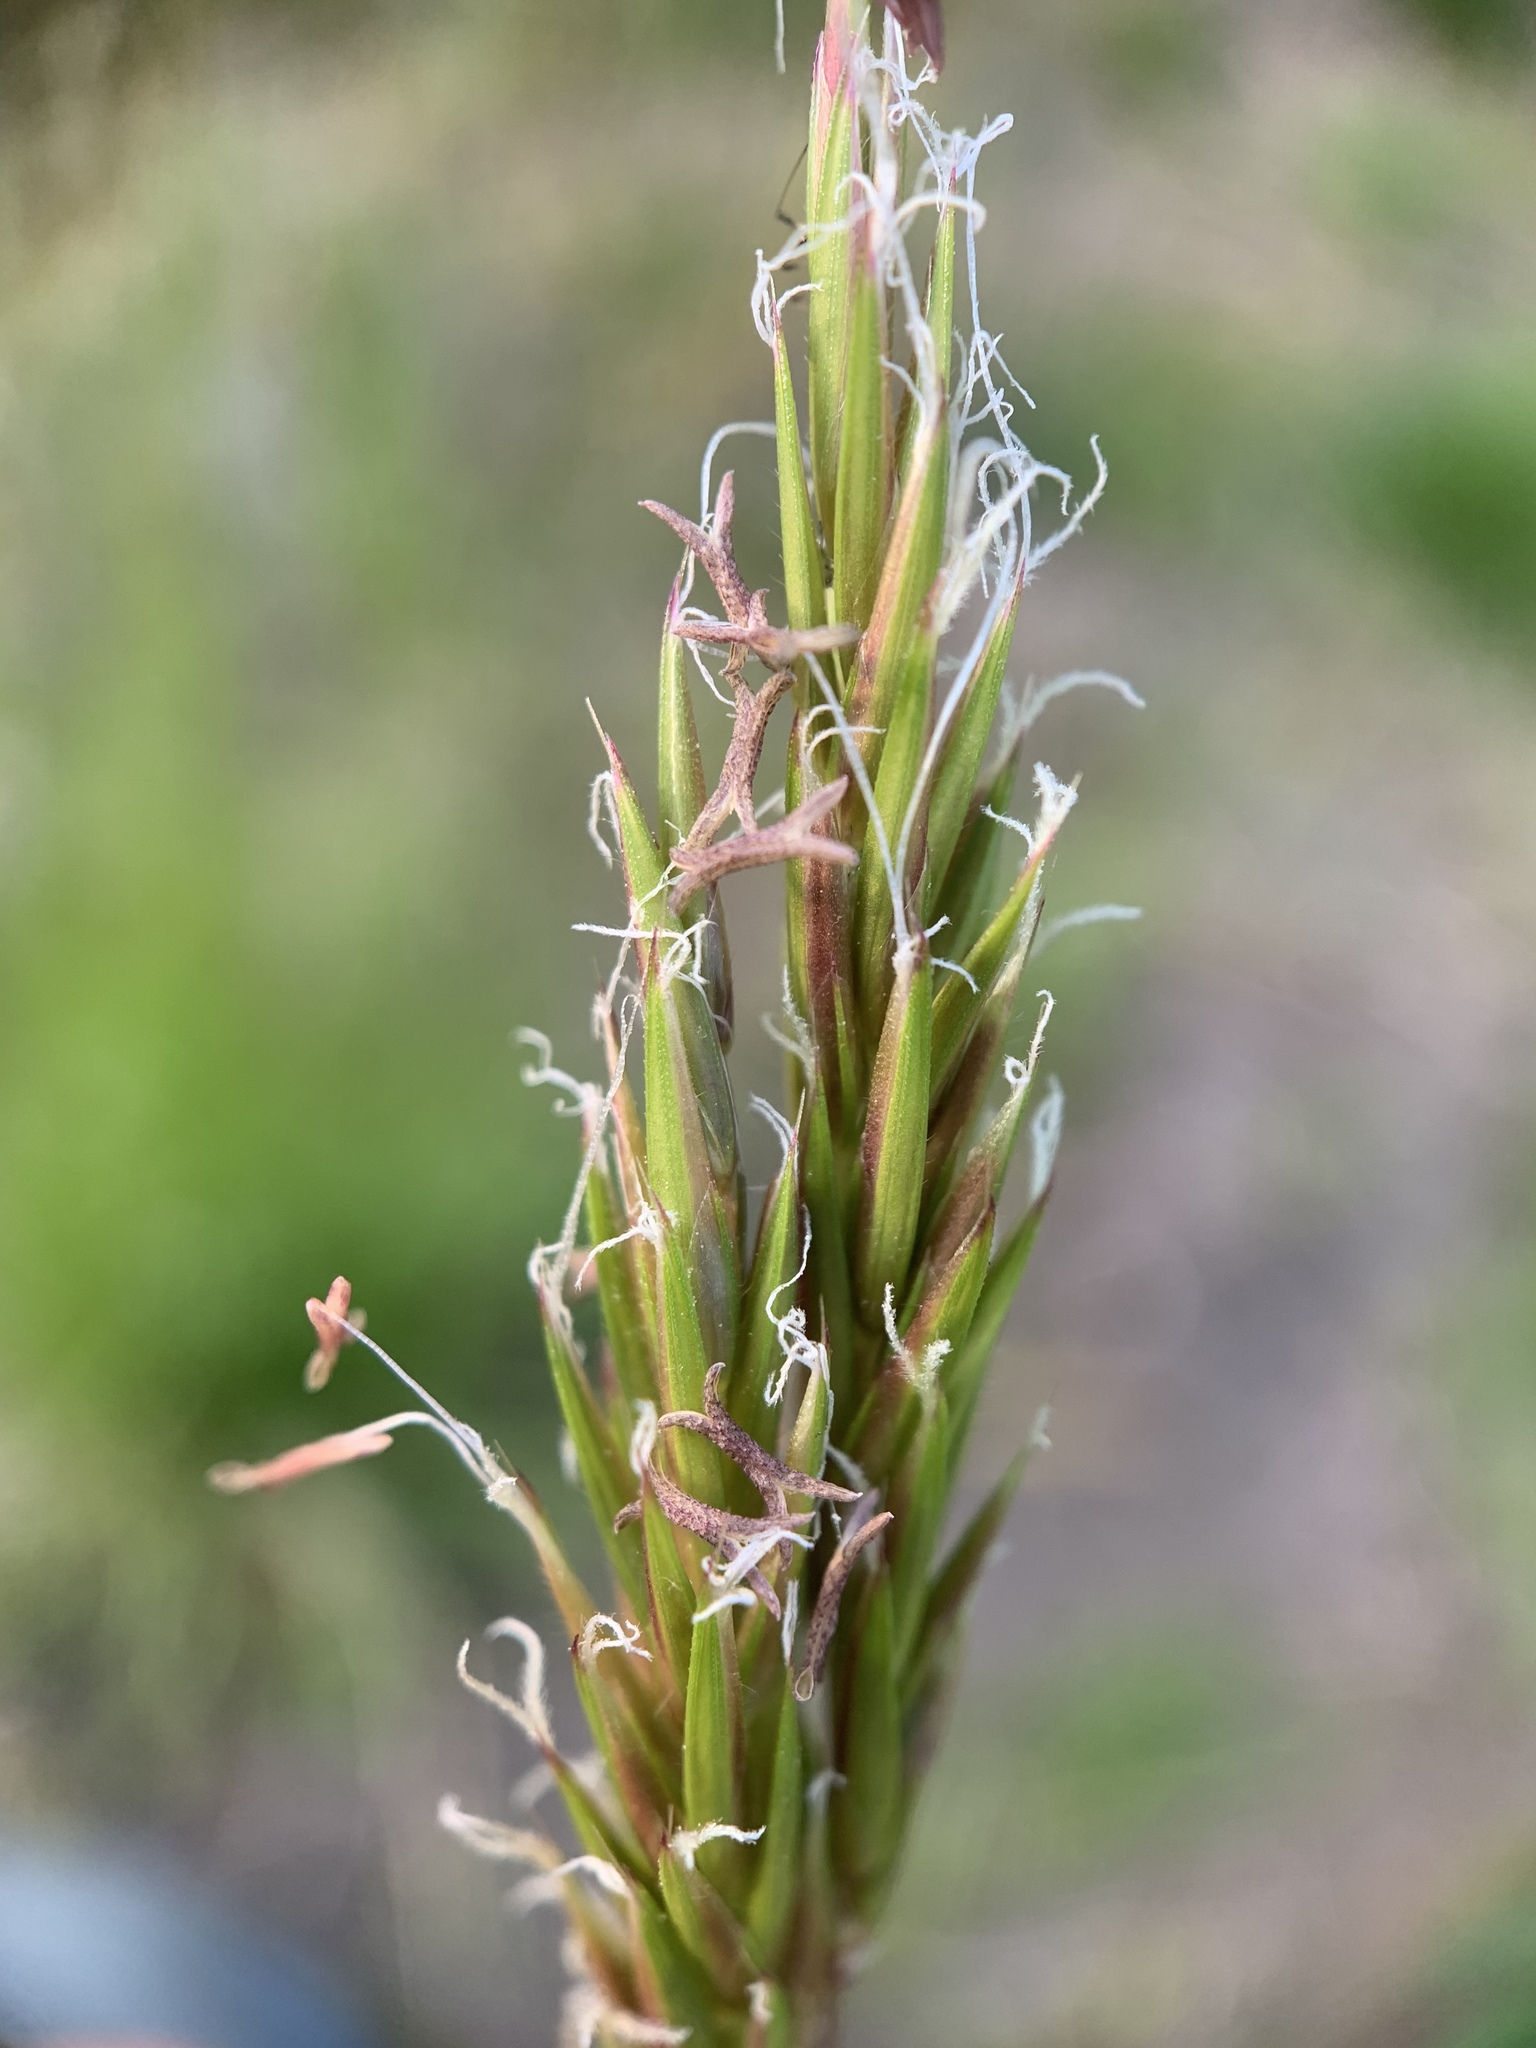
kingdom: Plantae
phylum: Tracheophyta
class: Liliopsida
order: Poales
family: Poaceae
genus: Anthoxanthum
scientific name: Anthoxanthum odoratum
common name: Sweet vernalgrass
